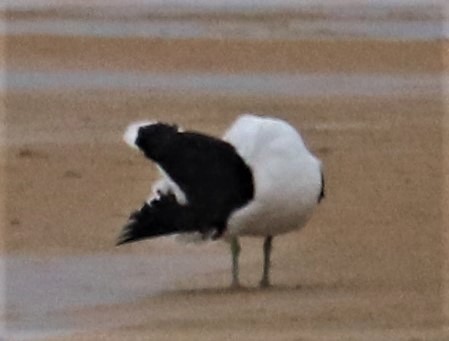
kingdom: Animalia
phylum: Chordata
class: Aves
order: Charadriiformes
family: Laridae
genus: Larus
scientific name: Larus dominicanus
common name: Kelp gull
